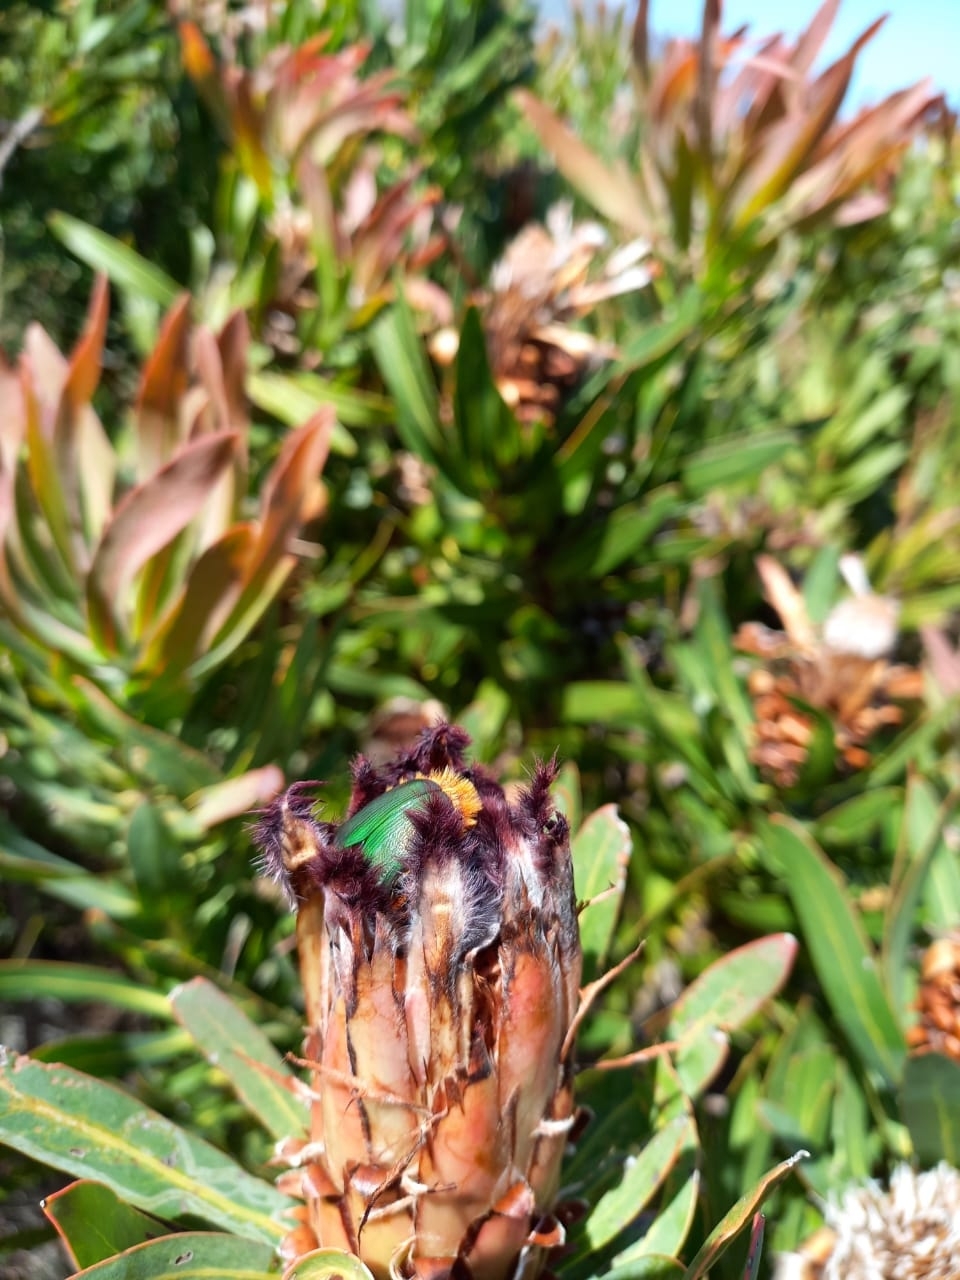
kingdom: Animalia
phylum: Arthropoda
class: Insecta
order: Coleoptera
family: Scarabaeidae
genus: Trichostetha
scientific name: Trichostetha fascicularis
